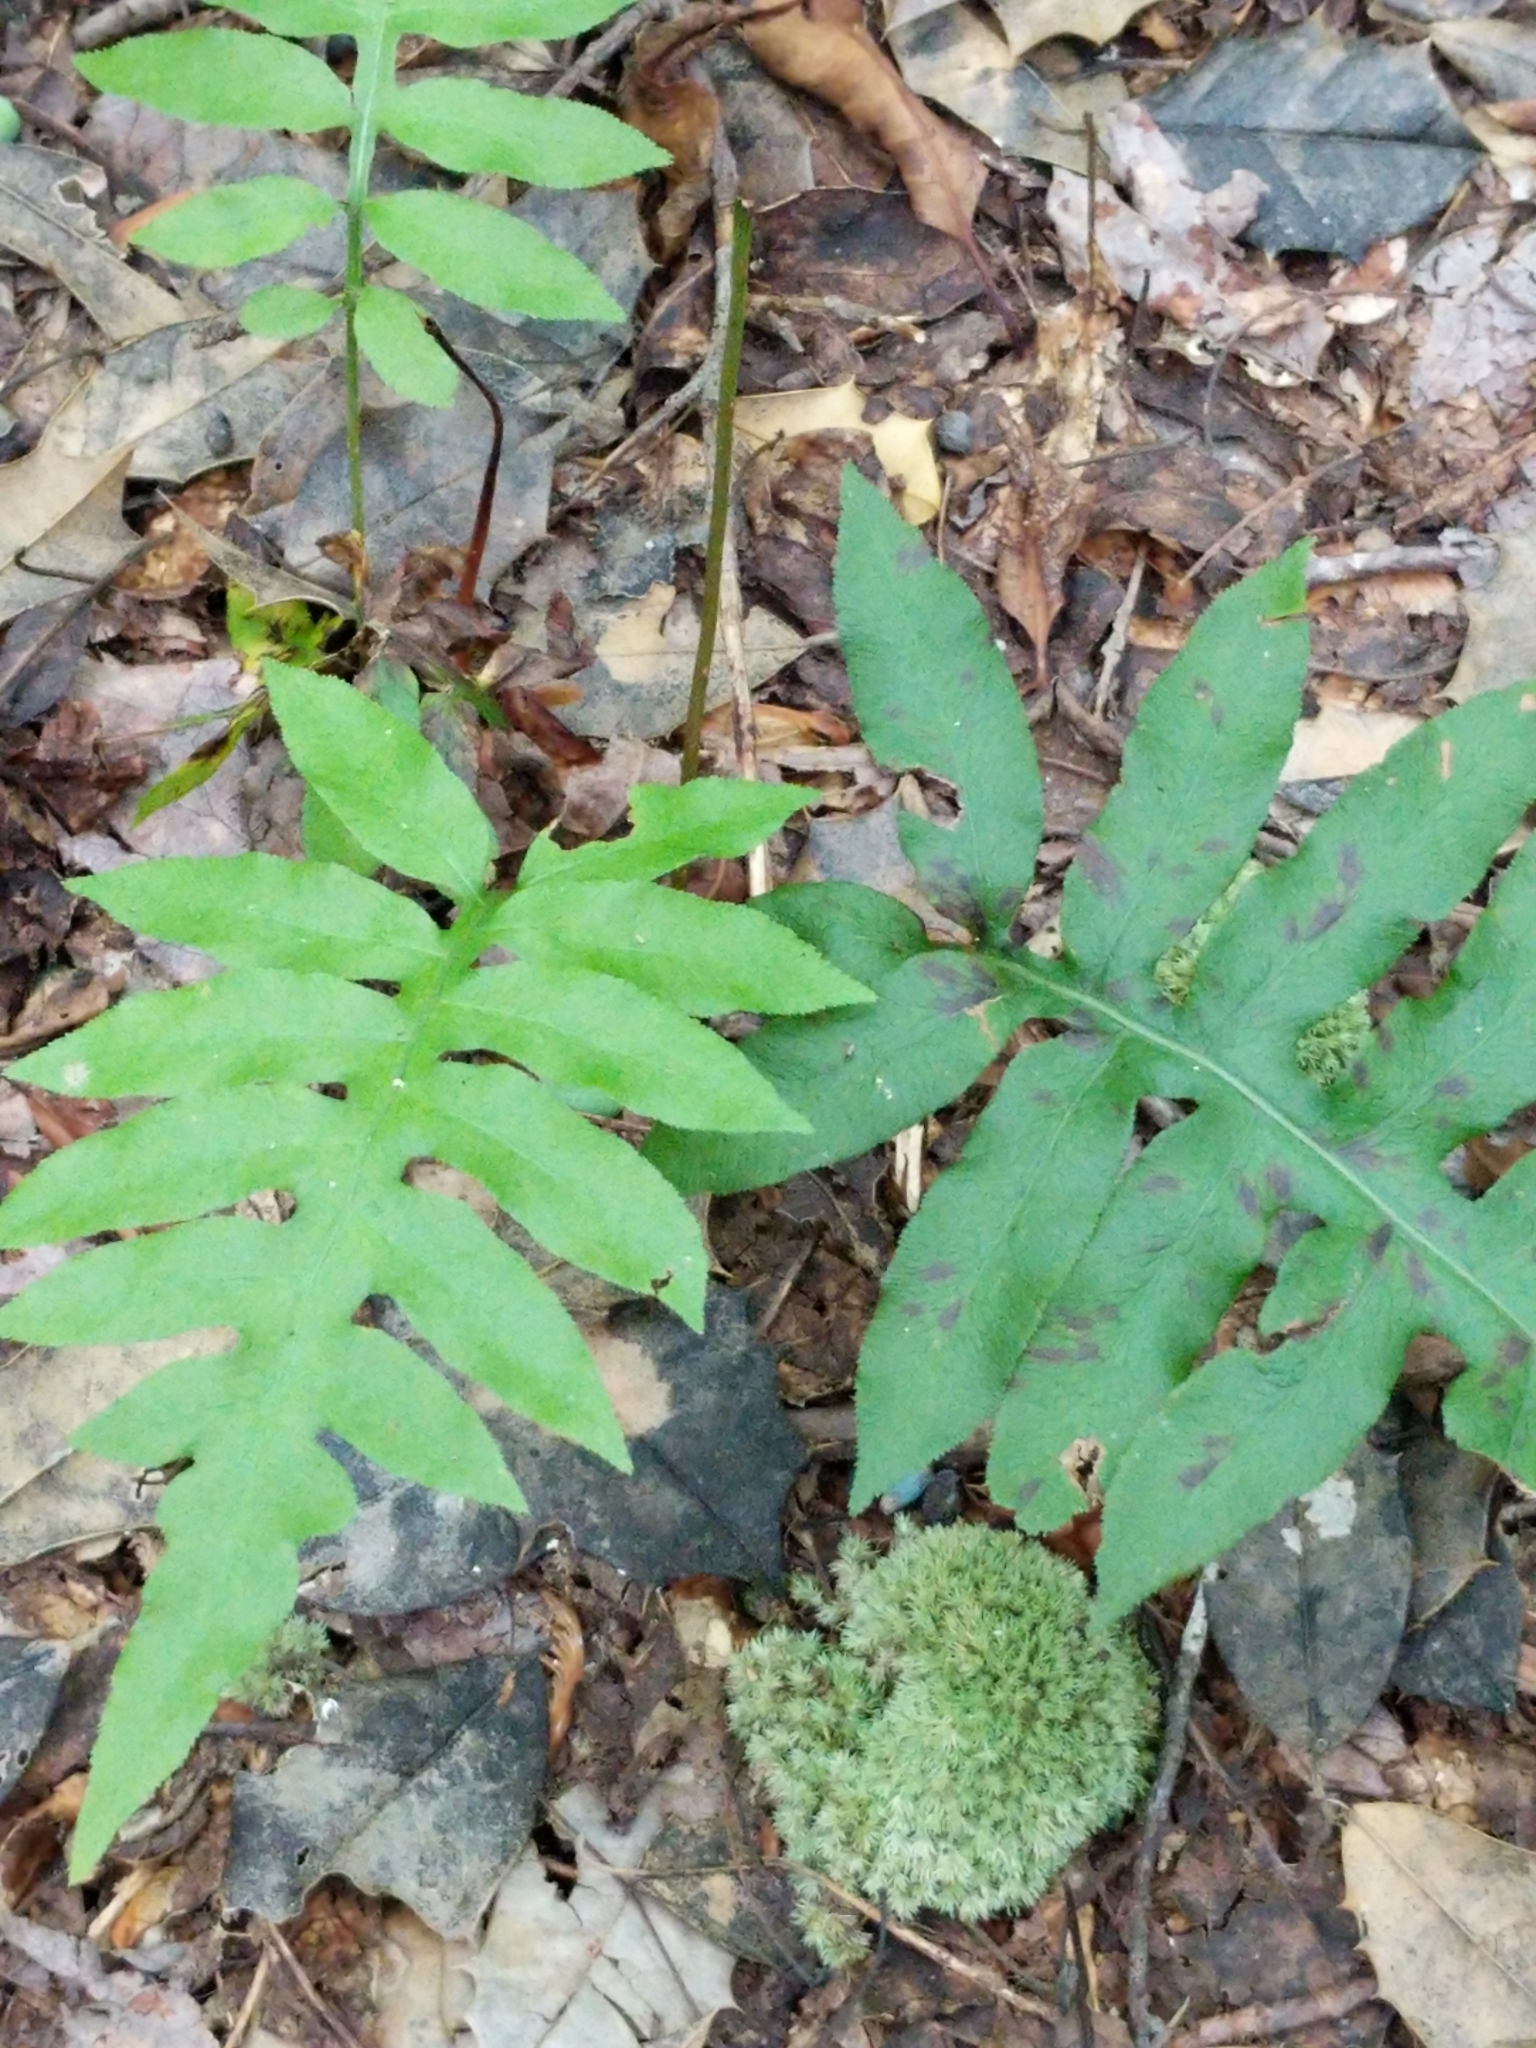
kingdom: Plantae
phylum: Tracheophyta
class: Polypodiopsida
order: Polypodiales
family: Blechnaceae
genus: Lorinseria
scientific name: Lorinseria areolata
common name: Dwarf chain fern
